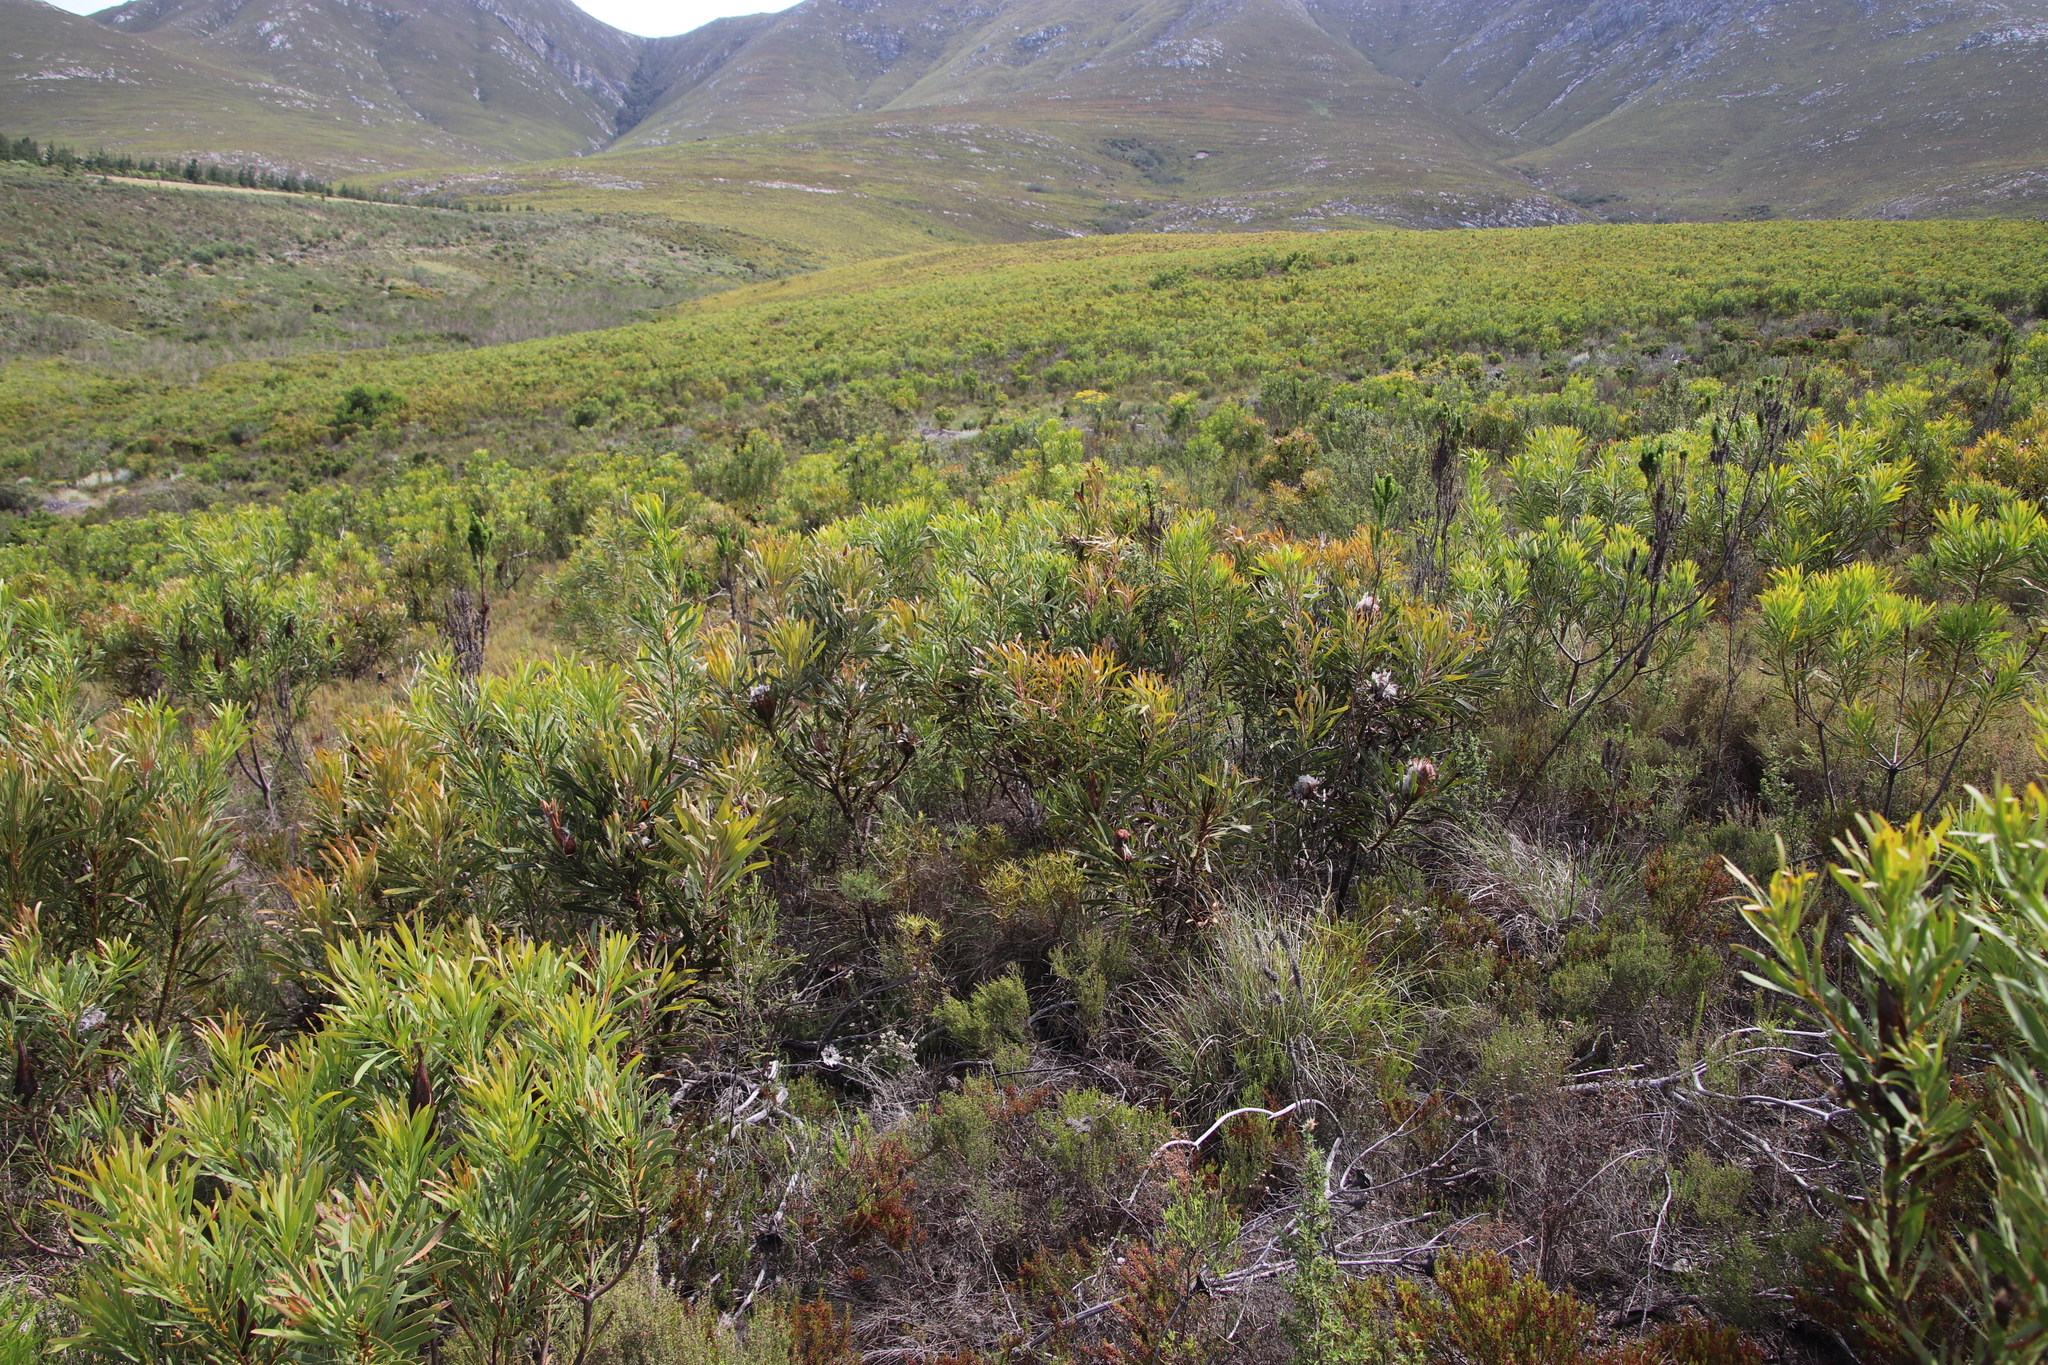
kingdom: Plantae
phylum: Tracheophyta
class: Magnoliopsida
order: Proteales
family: Proteaceae
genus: Protea
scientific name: Protea longifolia
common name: Long-leaf sugarbush
